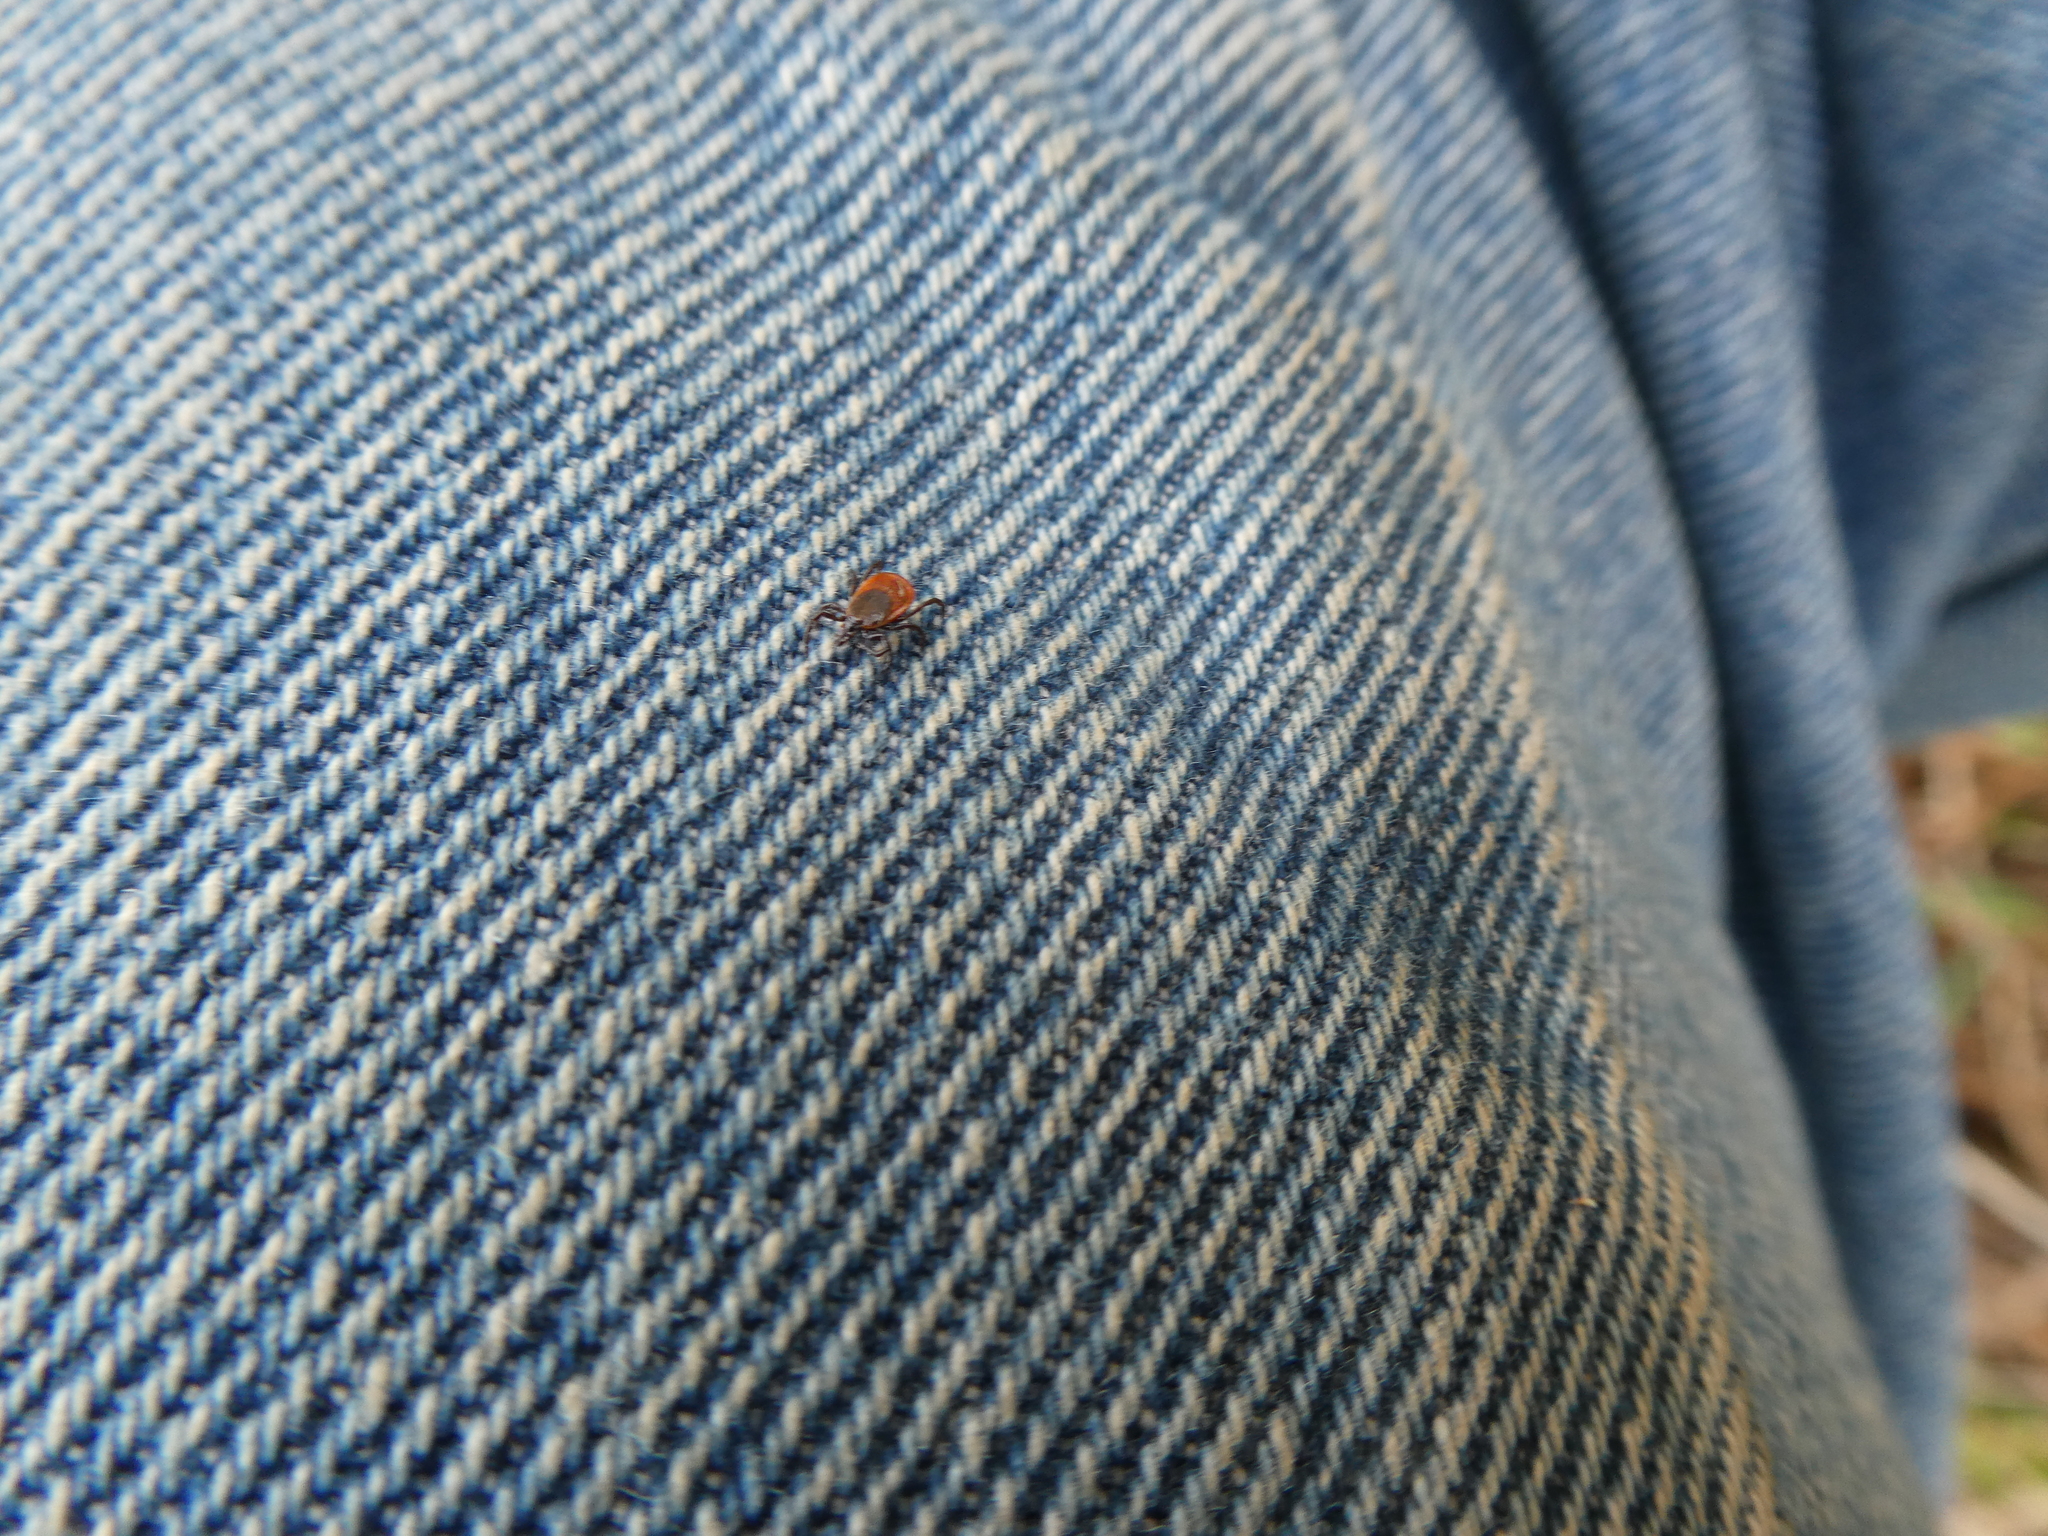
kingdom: Animalia
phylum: Arthropoda
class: Arachnida
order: Ixodida
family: Ixodidae
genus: Ixodes
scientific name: Ixodes scapularis
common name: Black legged tick
